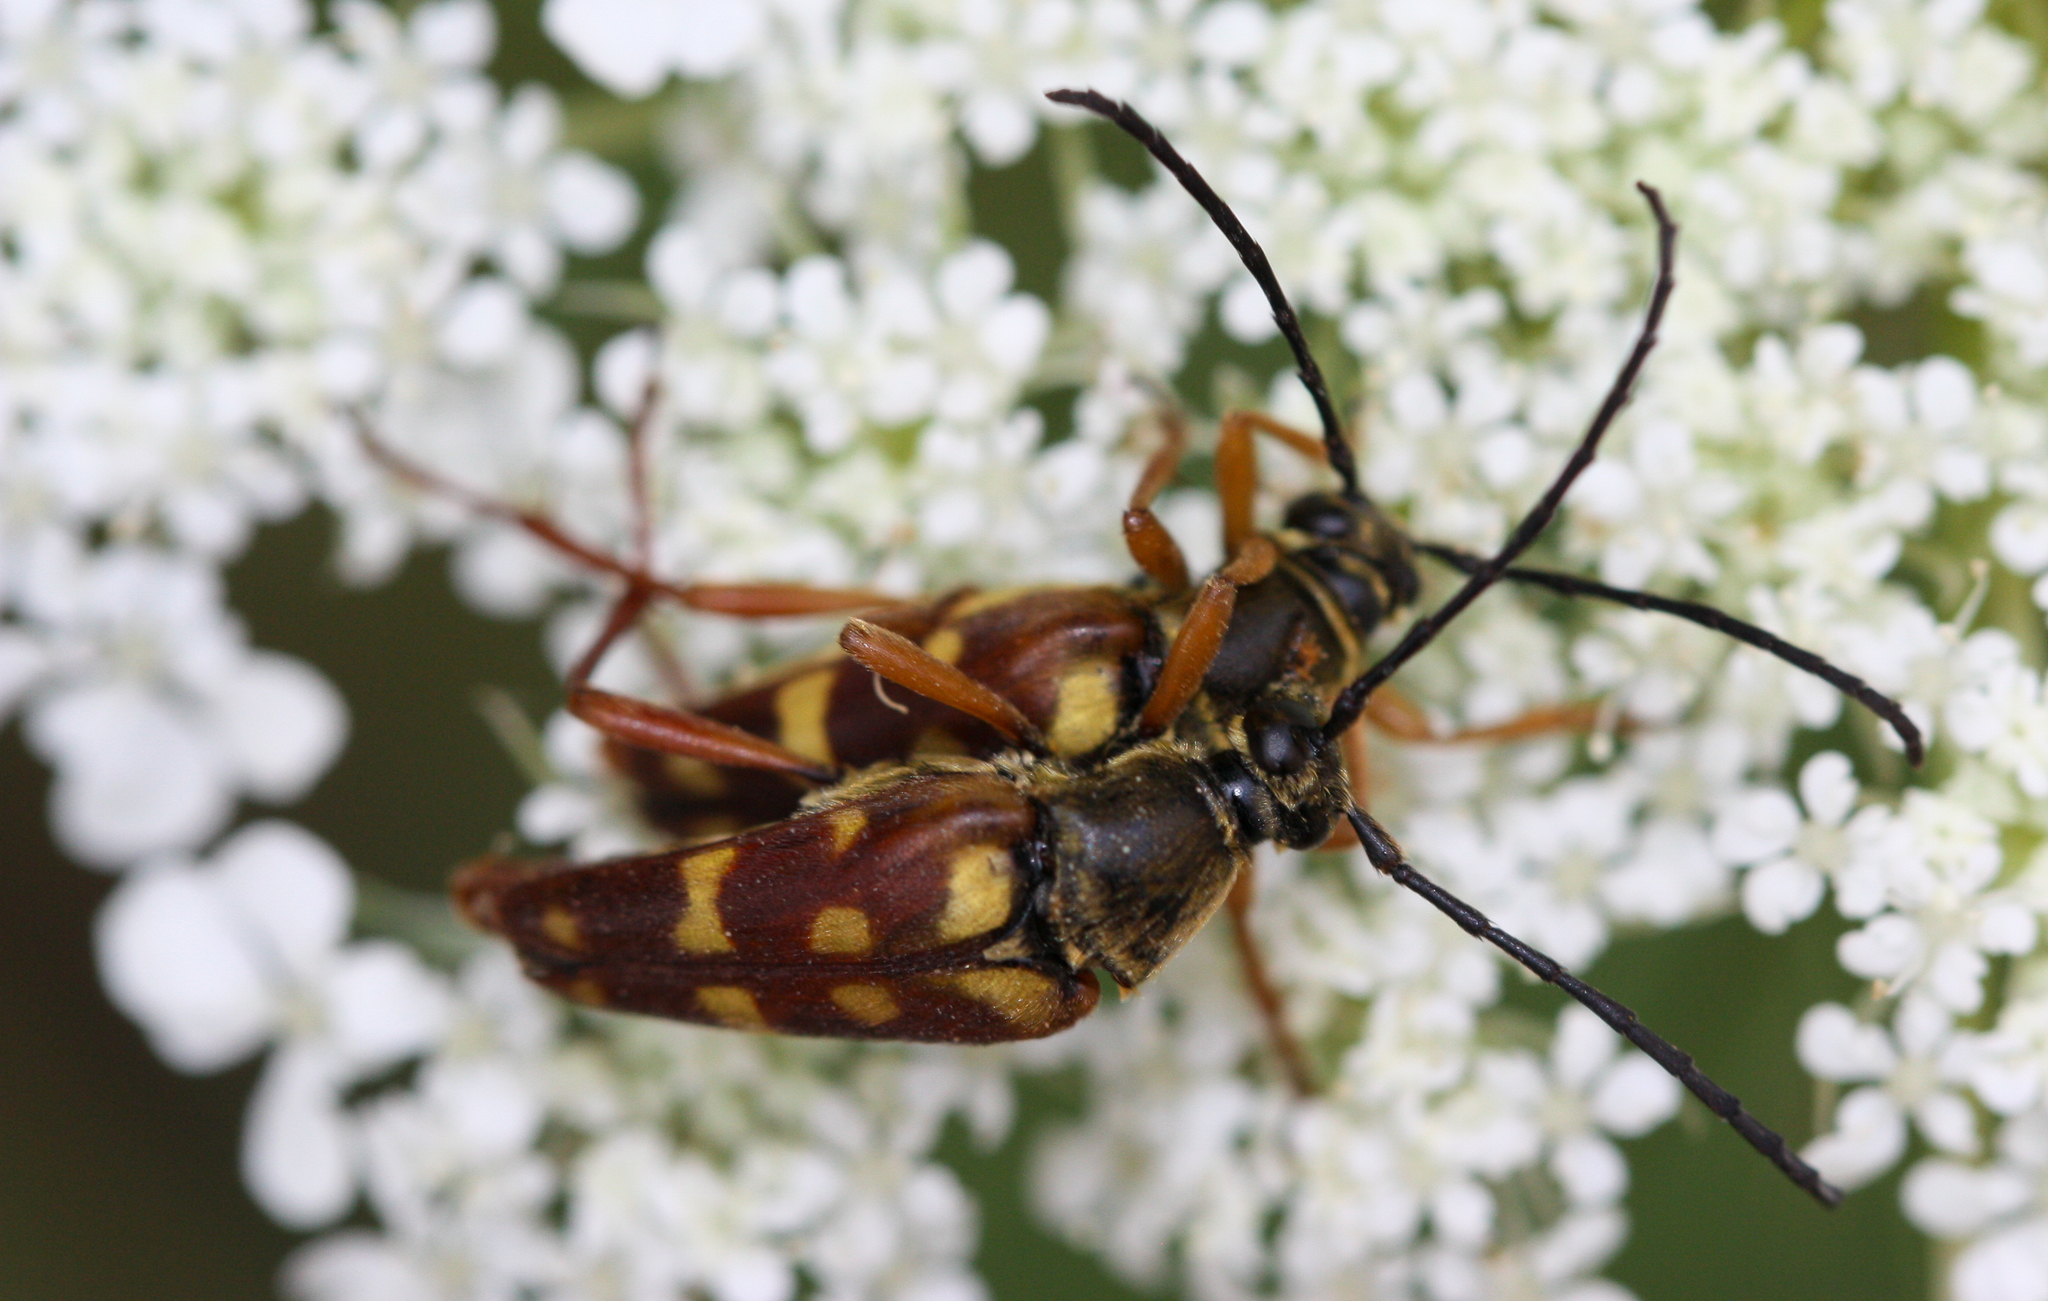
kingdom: Animalia
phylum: Arthropoda
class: Insecta
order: Coleoptera
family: Cerambycidae
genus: Typocerus
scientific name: Typocerus velutinus
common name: Banded longhorn beetle
